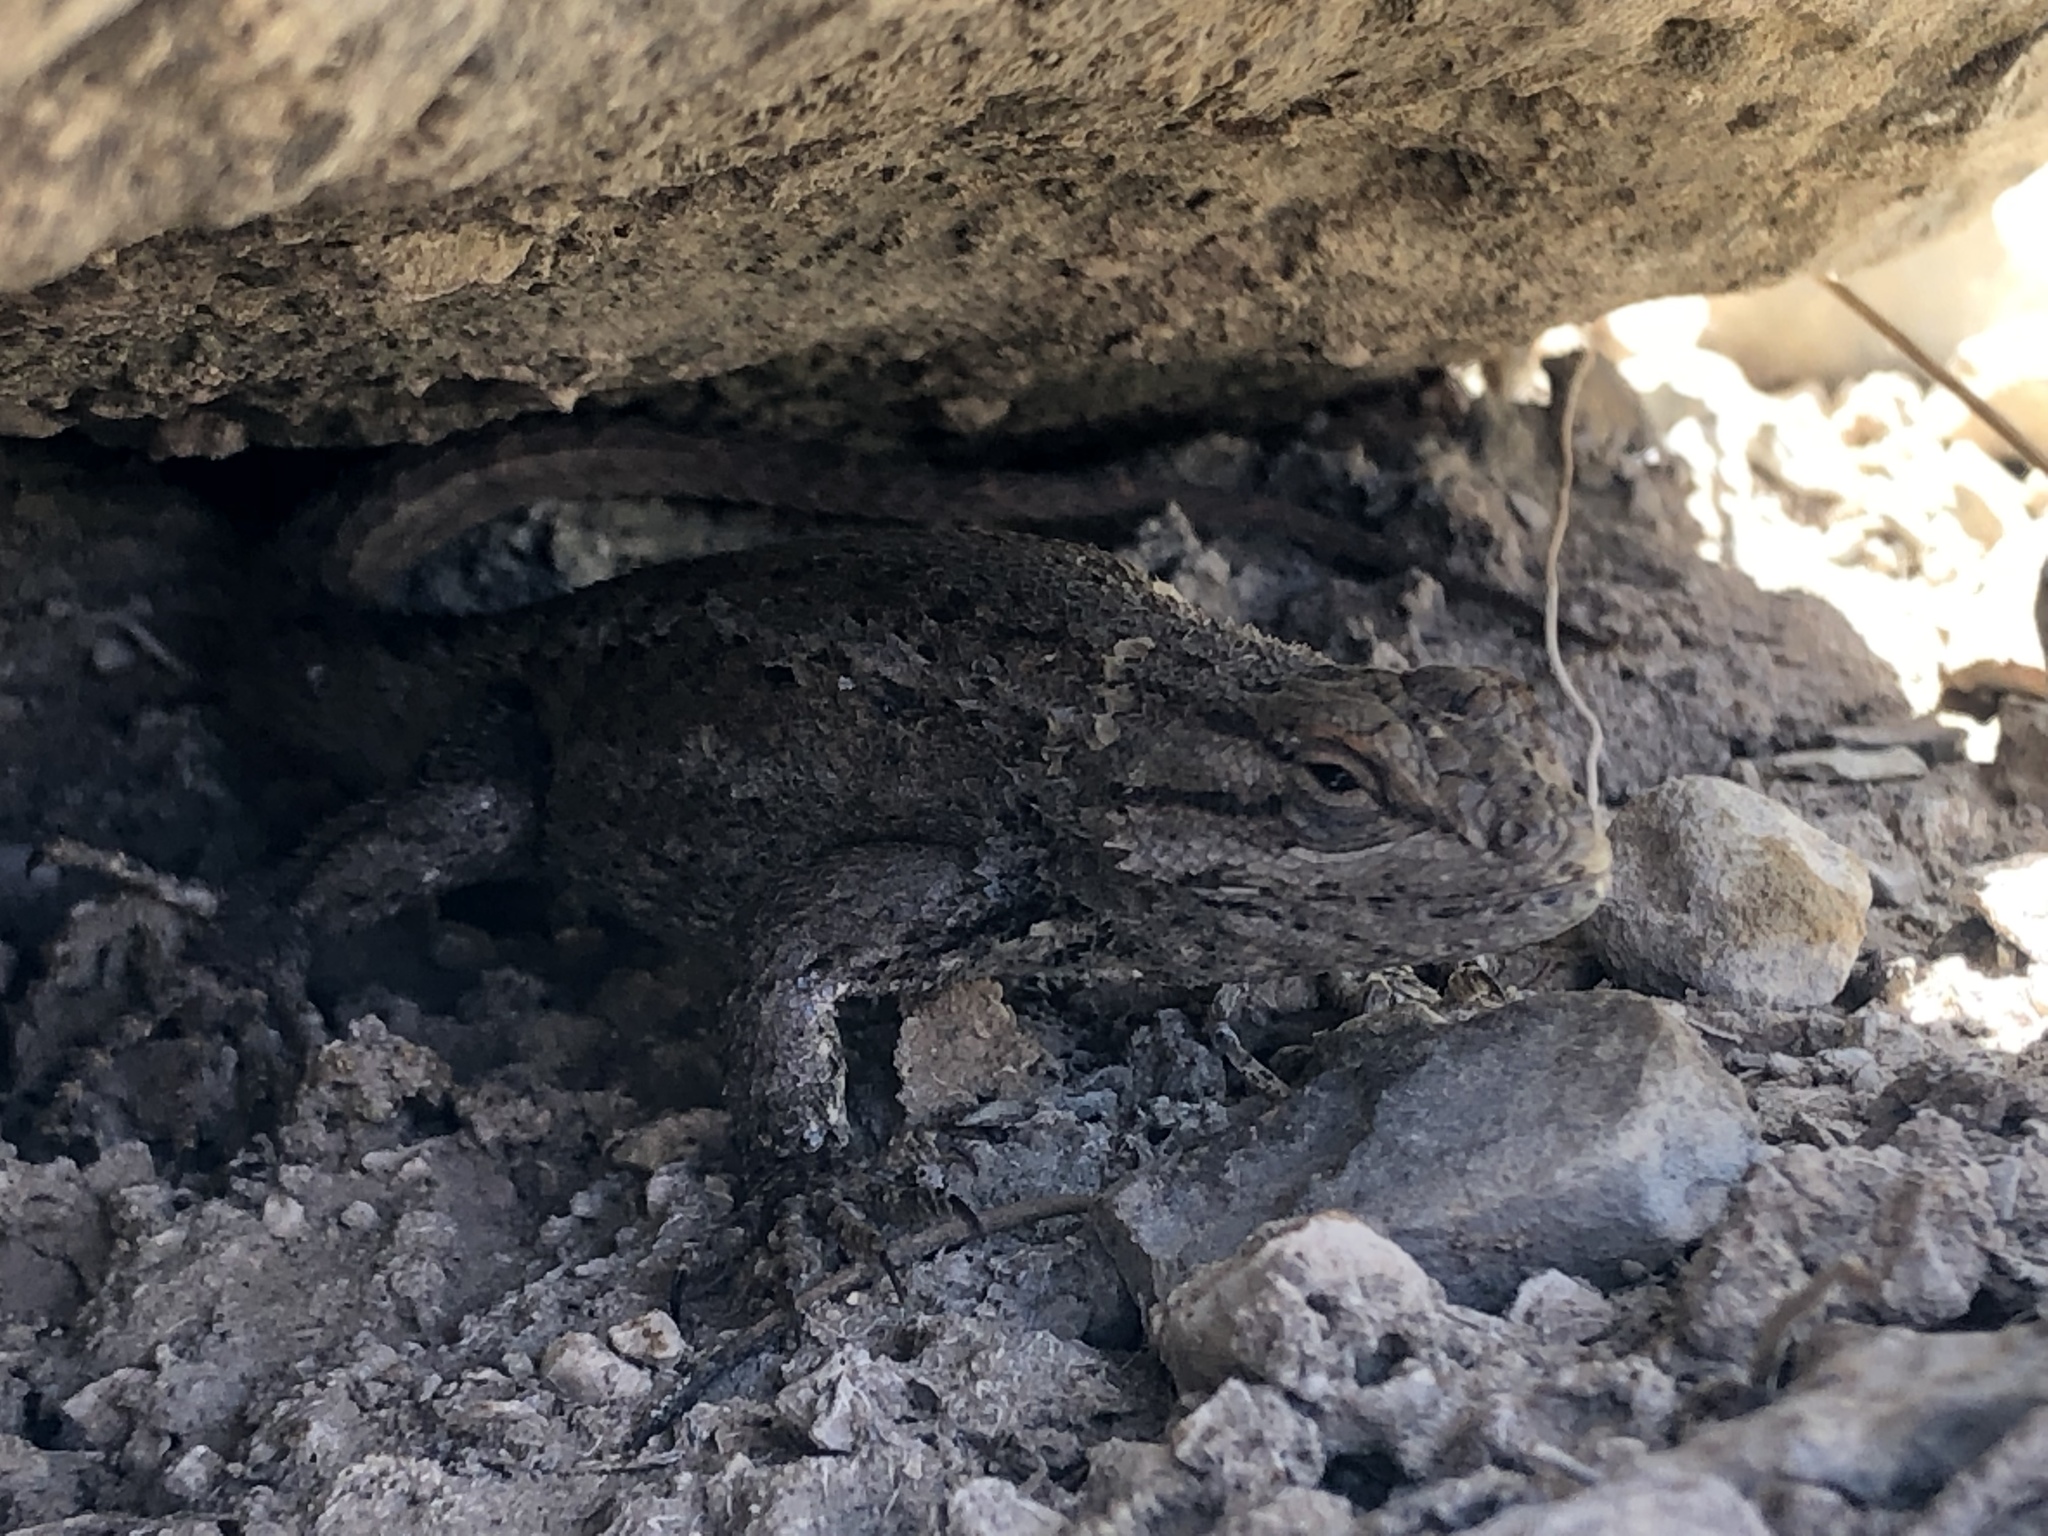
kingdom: Animalia
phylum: Chordata
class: Squamata
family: Phrynosomatidae
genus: Sceloporus
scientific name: Sceloporus cowlesi
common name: White sands prairie lizard
